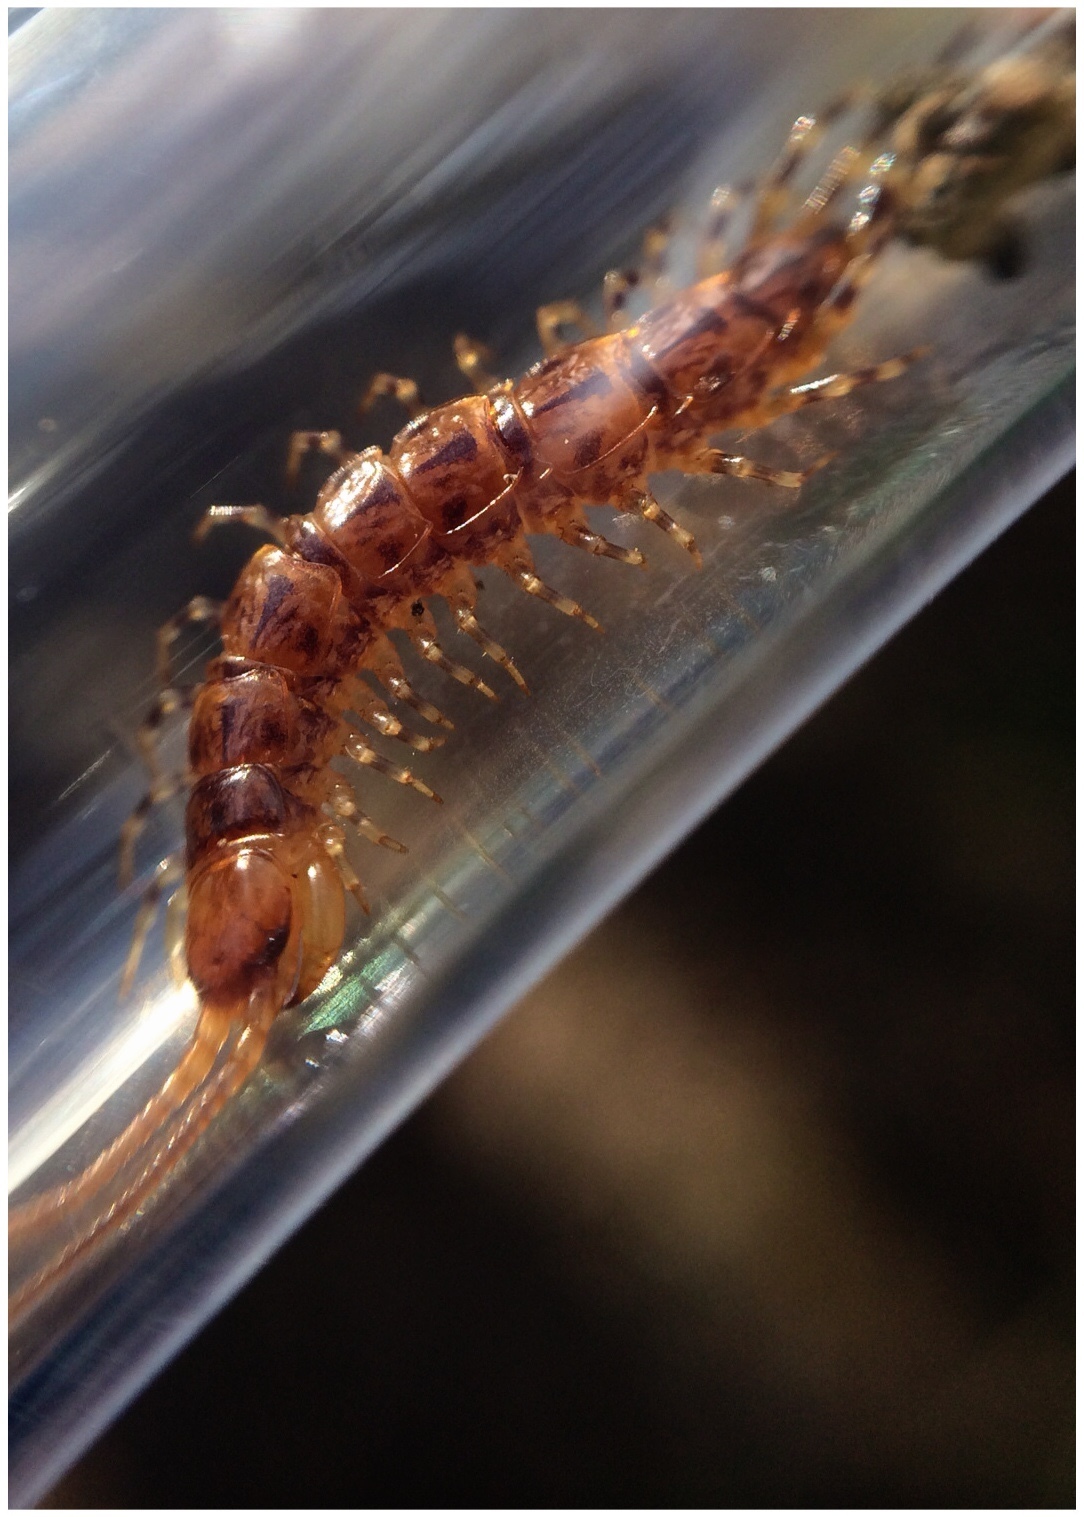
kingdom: Animalia
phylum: Arthropoda
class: Chilopoda
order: Lithobiomorpha
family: Lithobiidae
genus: Lithobius
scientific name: Lithobius variegatus
